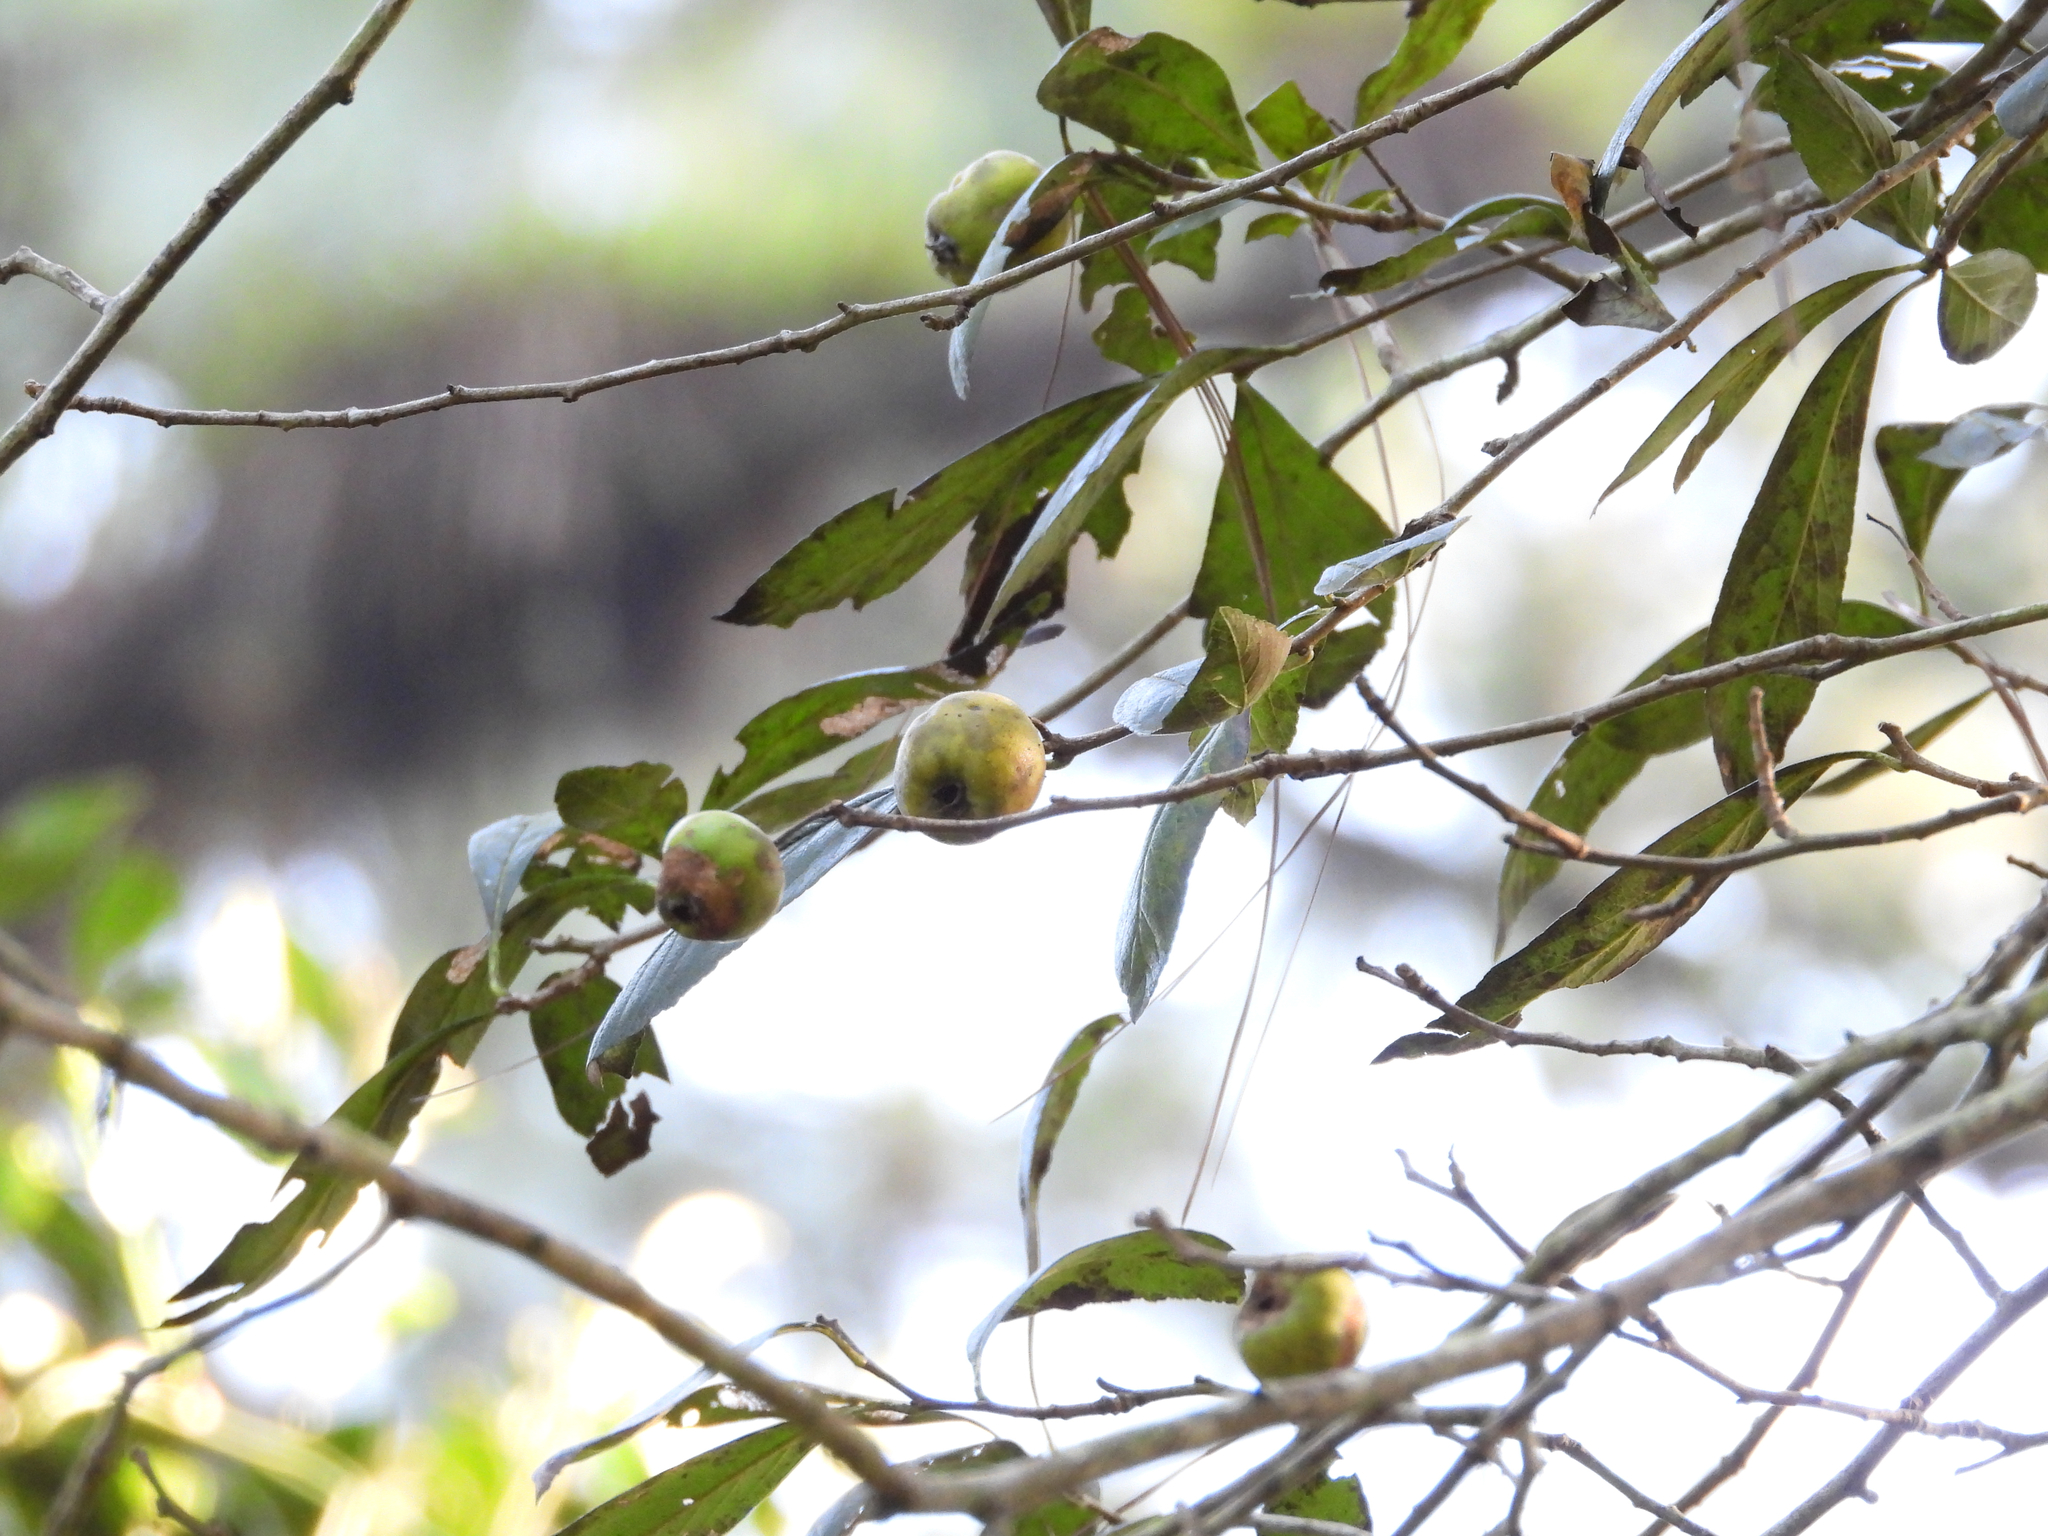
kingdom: Plantae
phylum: Tracheophyta
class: Magnoliopsida
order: Rosales
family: Rosaceae
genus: Crataegus
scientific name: Crataegus mexicana
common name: Mexican hawthorn
